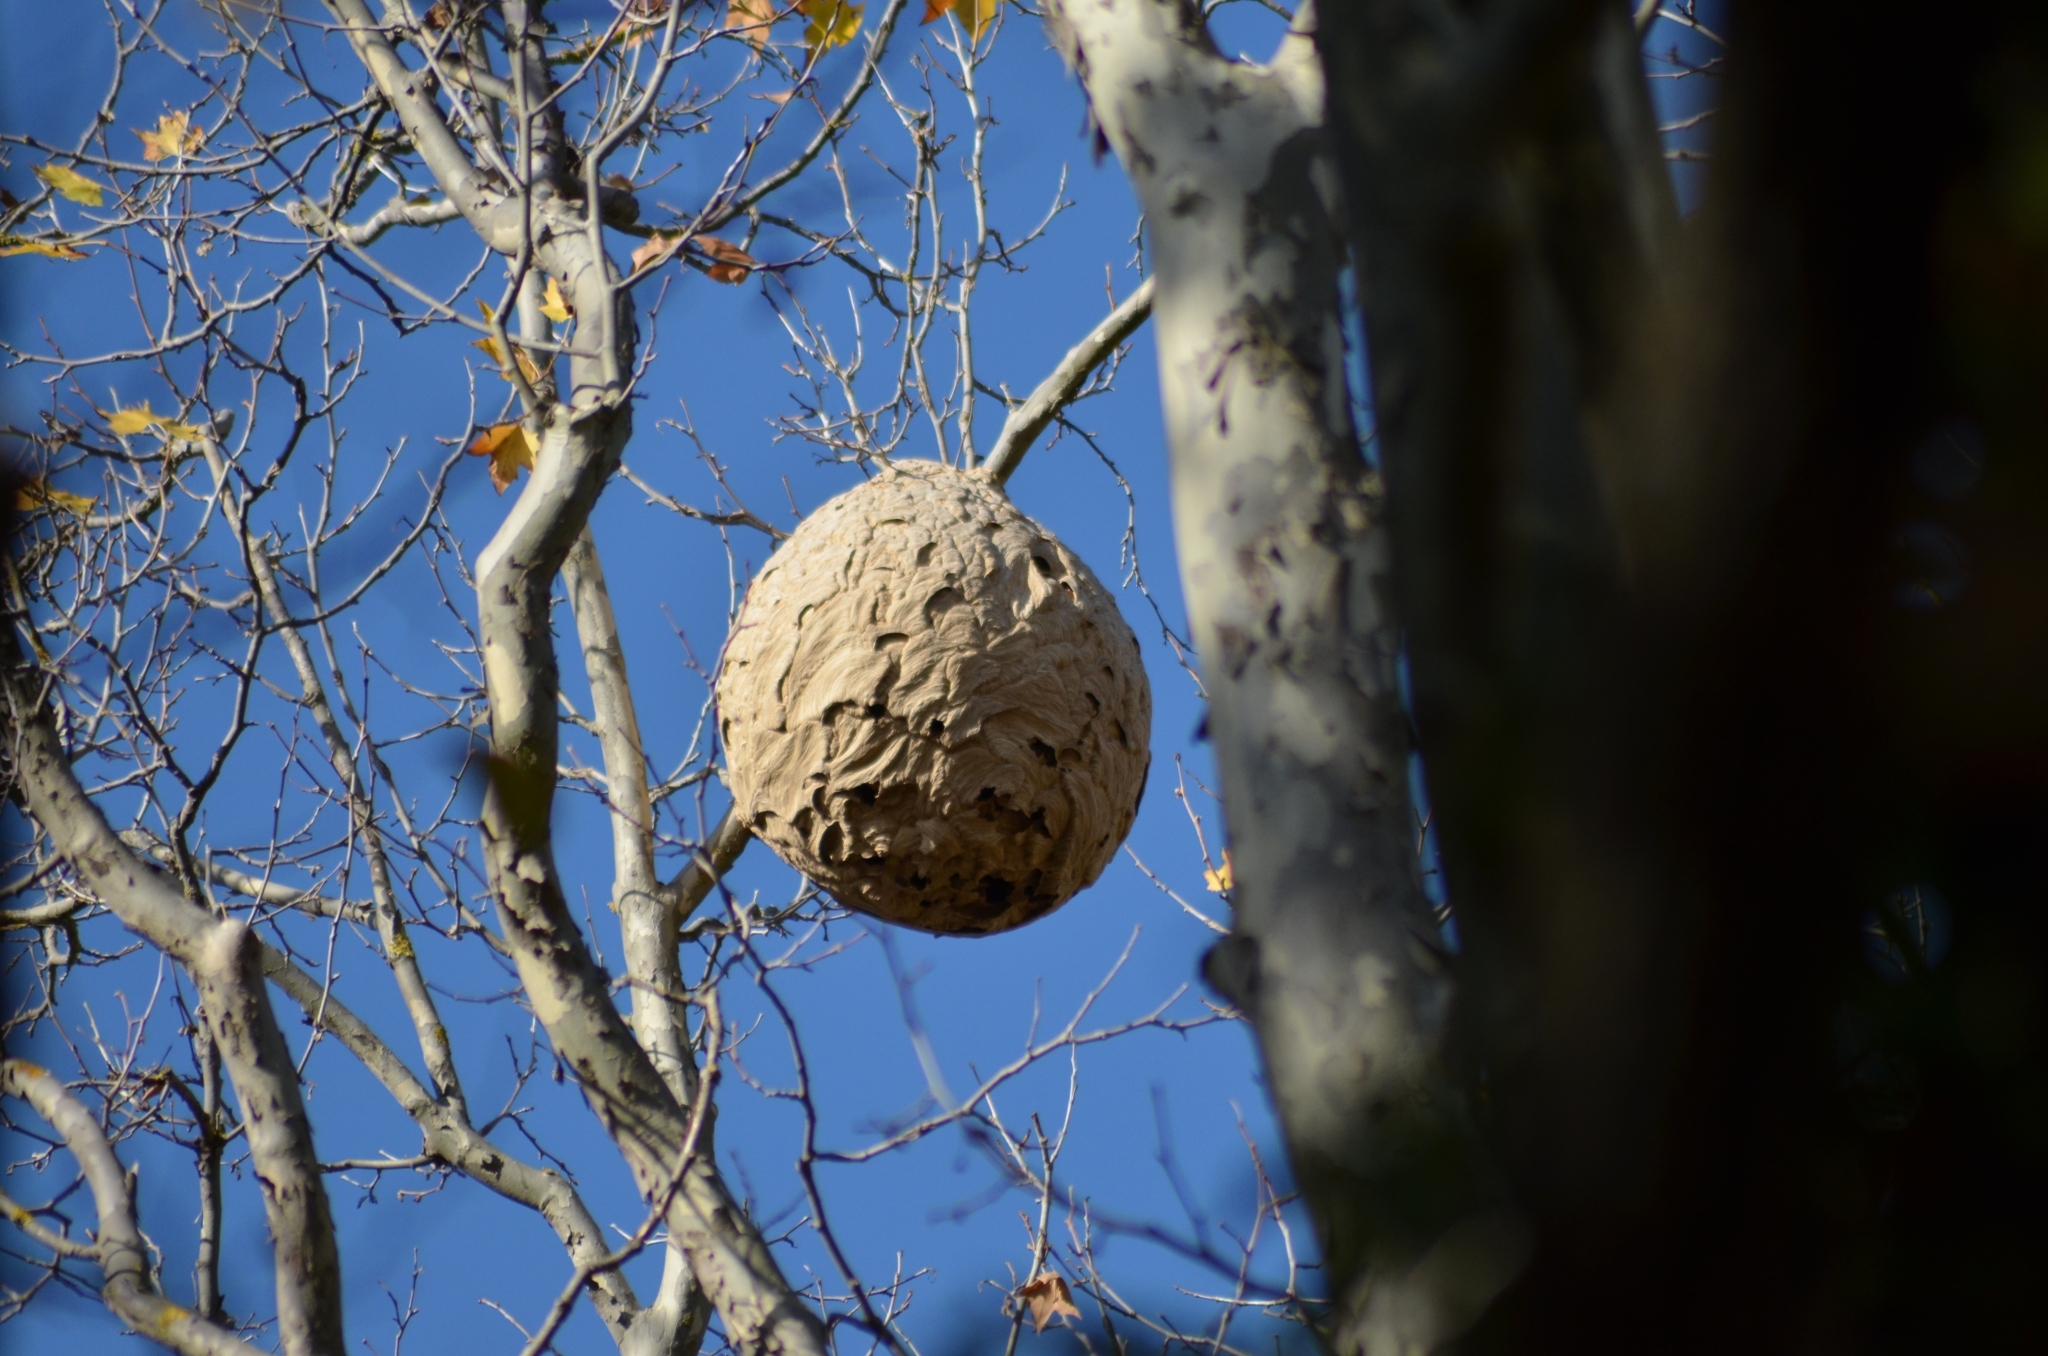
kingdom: Animalia
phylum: Arthropoda
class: Insecta
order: Hymenoptera
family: Vespidae
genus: Vespa
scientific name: Vespa velutina
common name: Asian hornet
